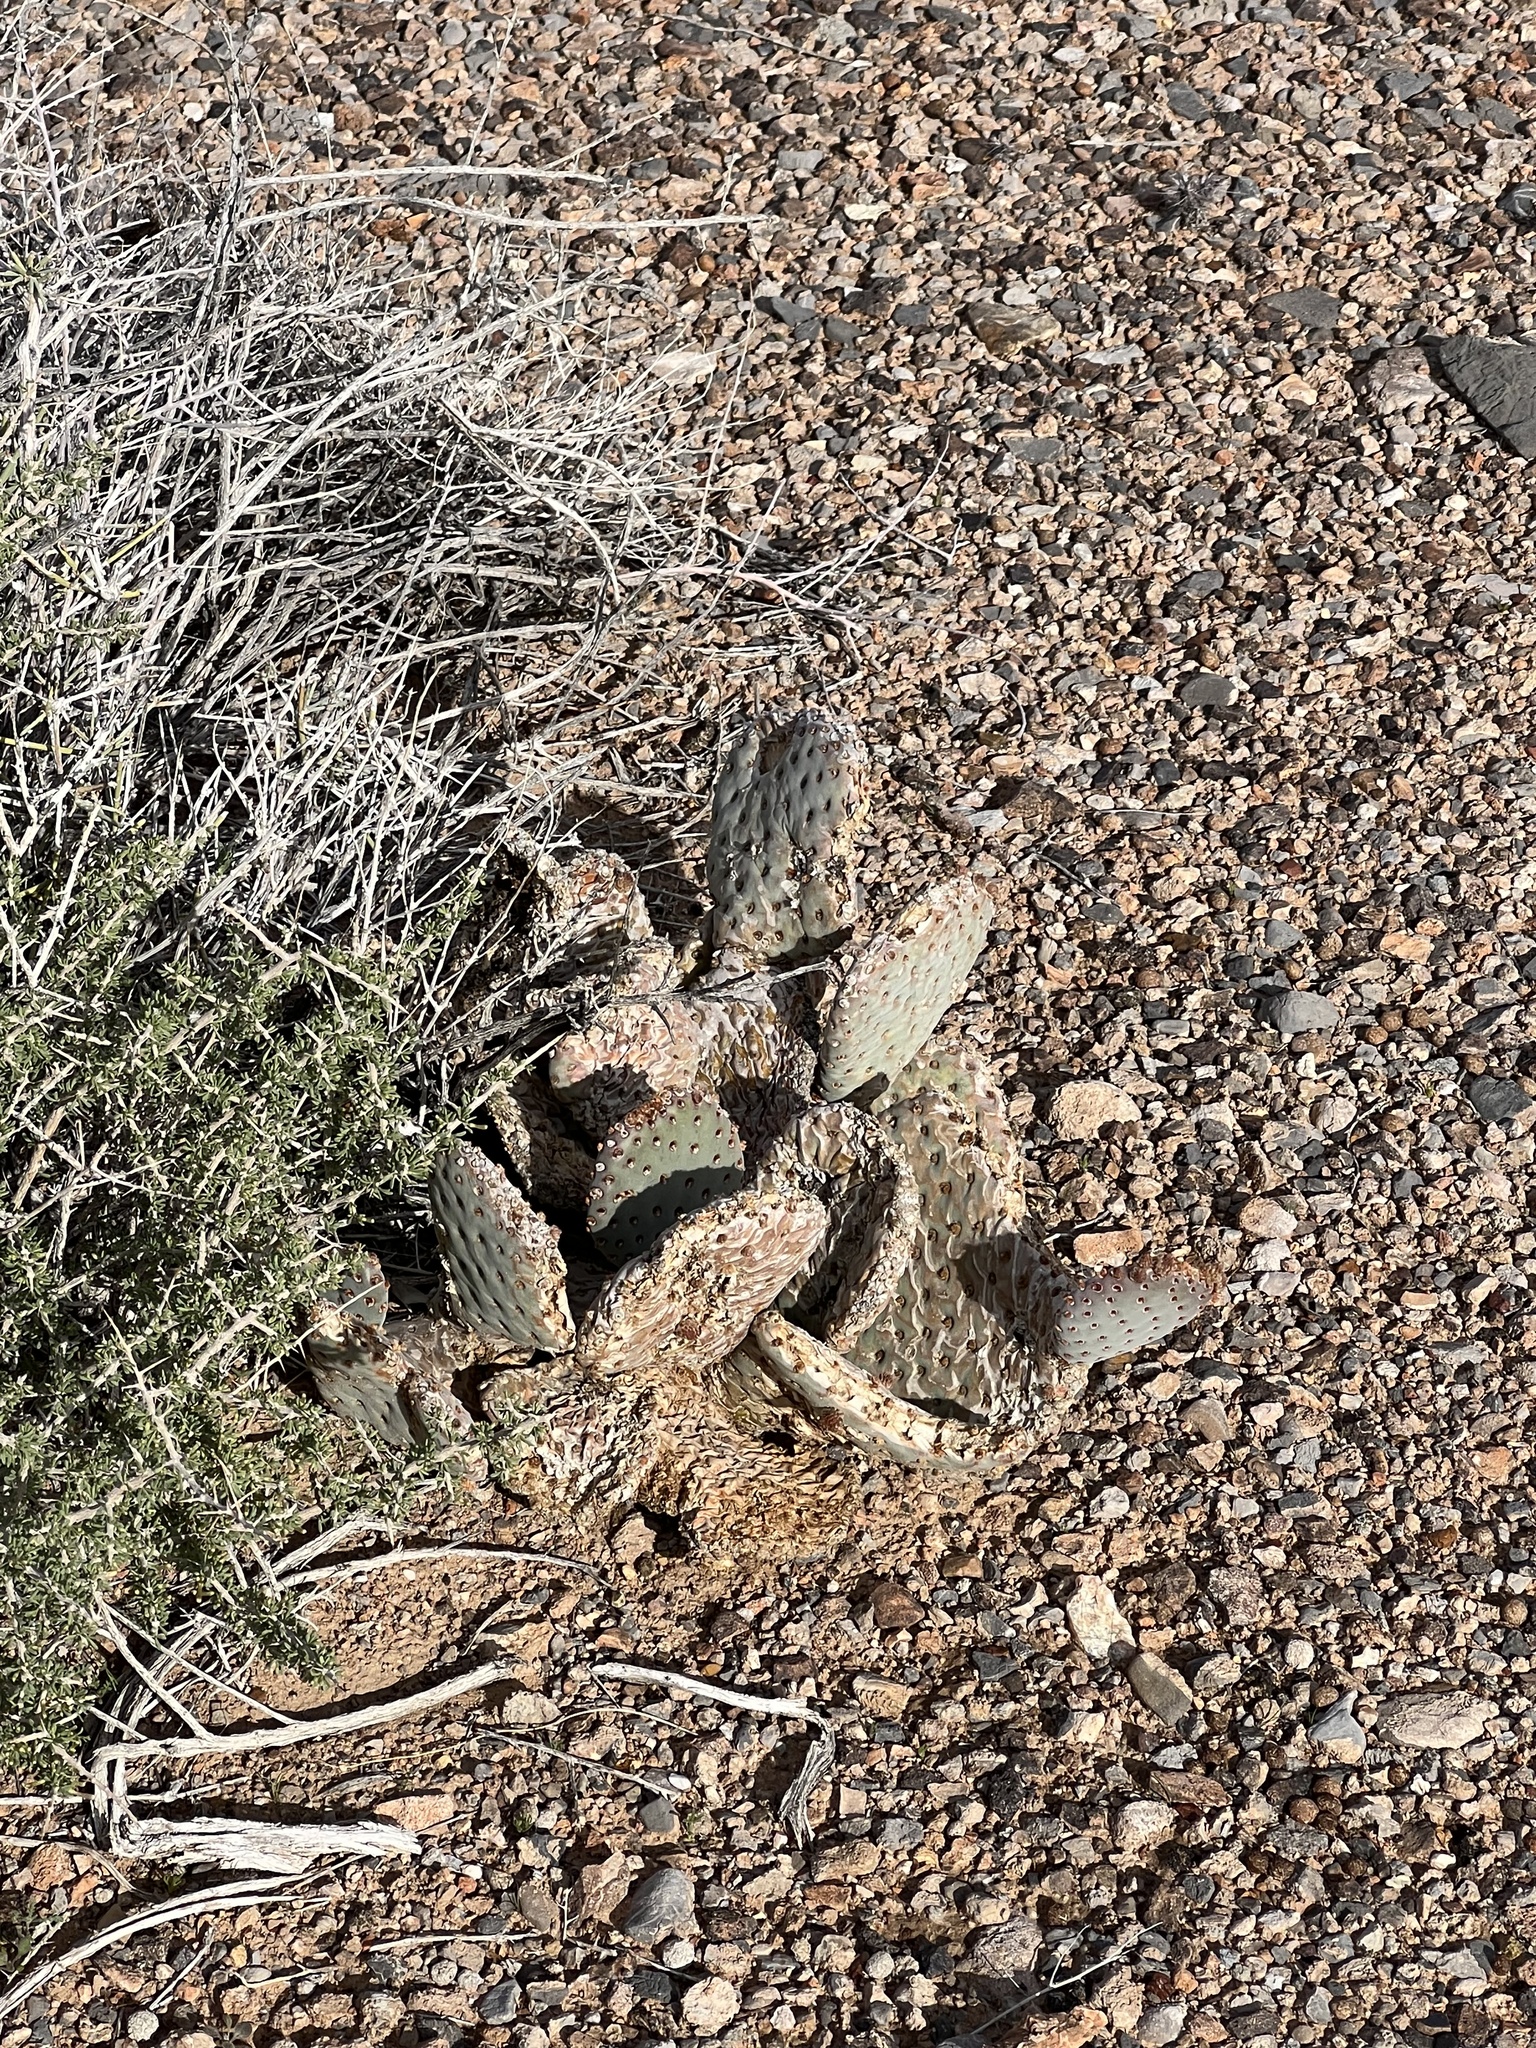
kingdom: Plantae
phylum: Tracheophyta
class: Magnoliopsida
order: Caryophyllales
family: Cactaceae
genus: Opuntia
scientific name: Opuntia basilaris
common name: Beavertail prickly-pear
